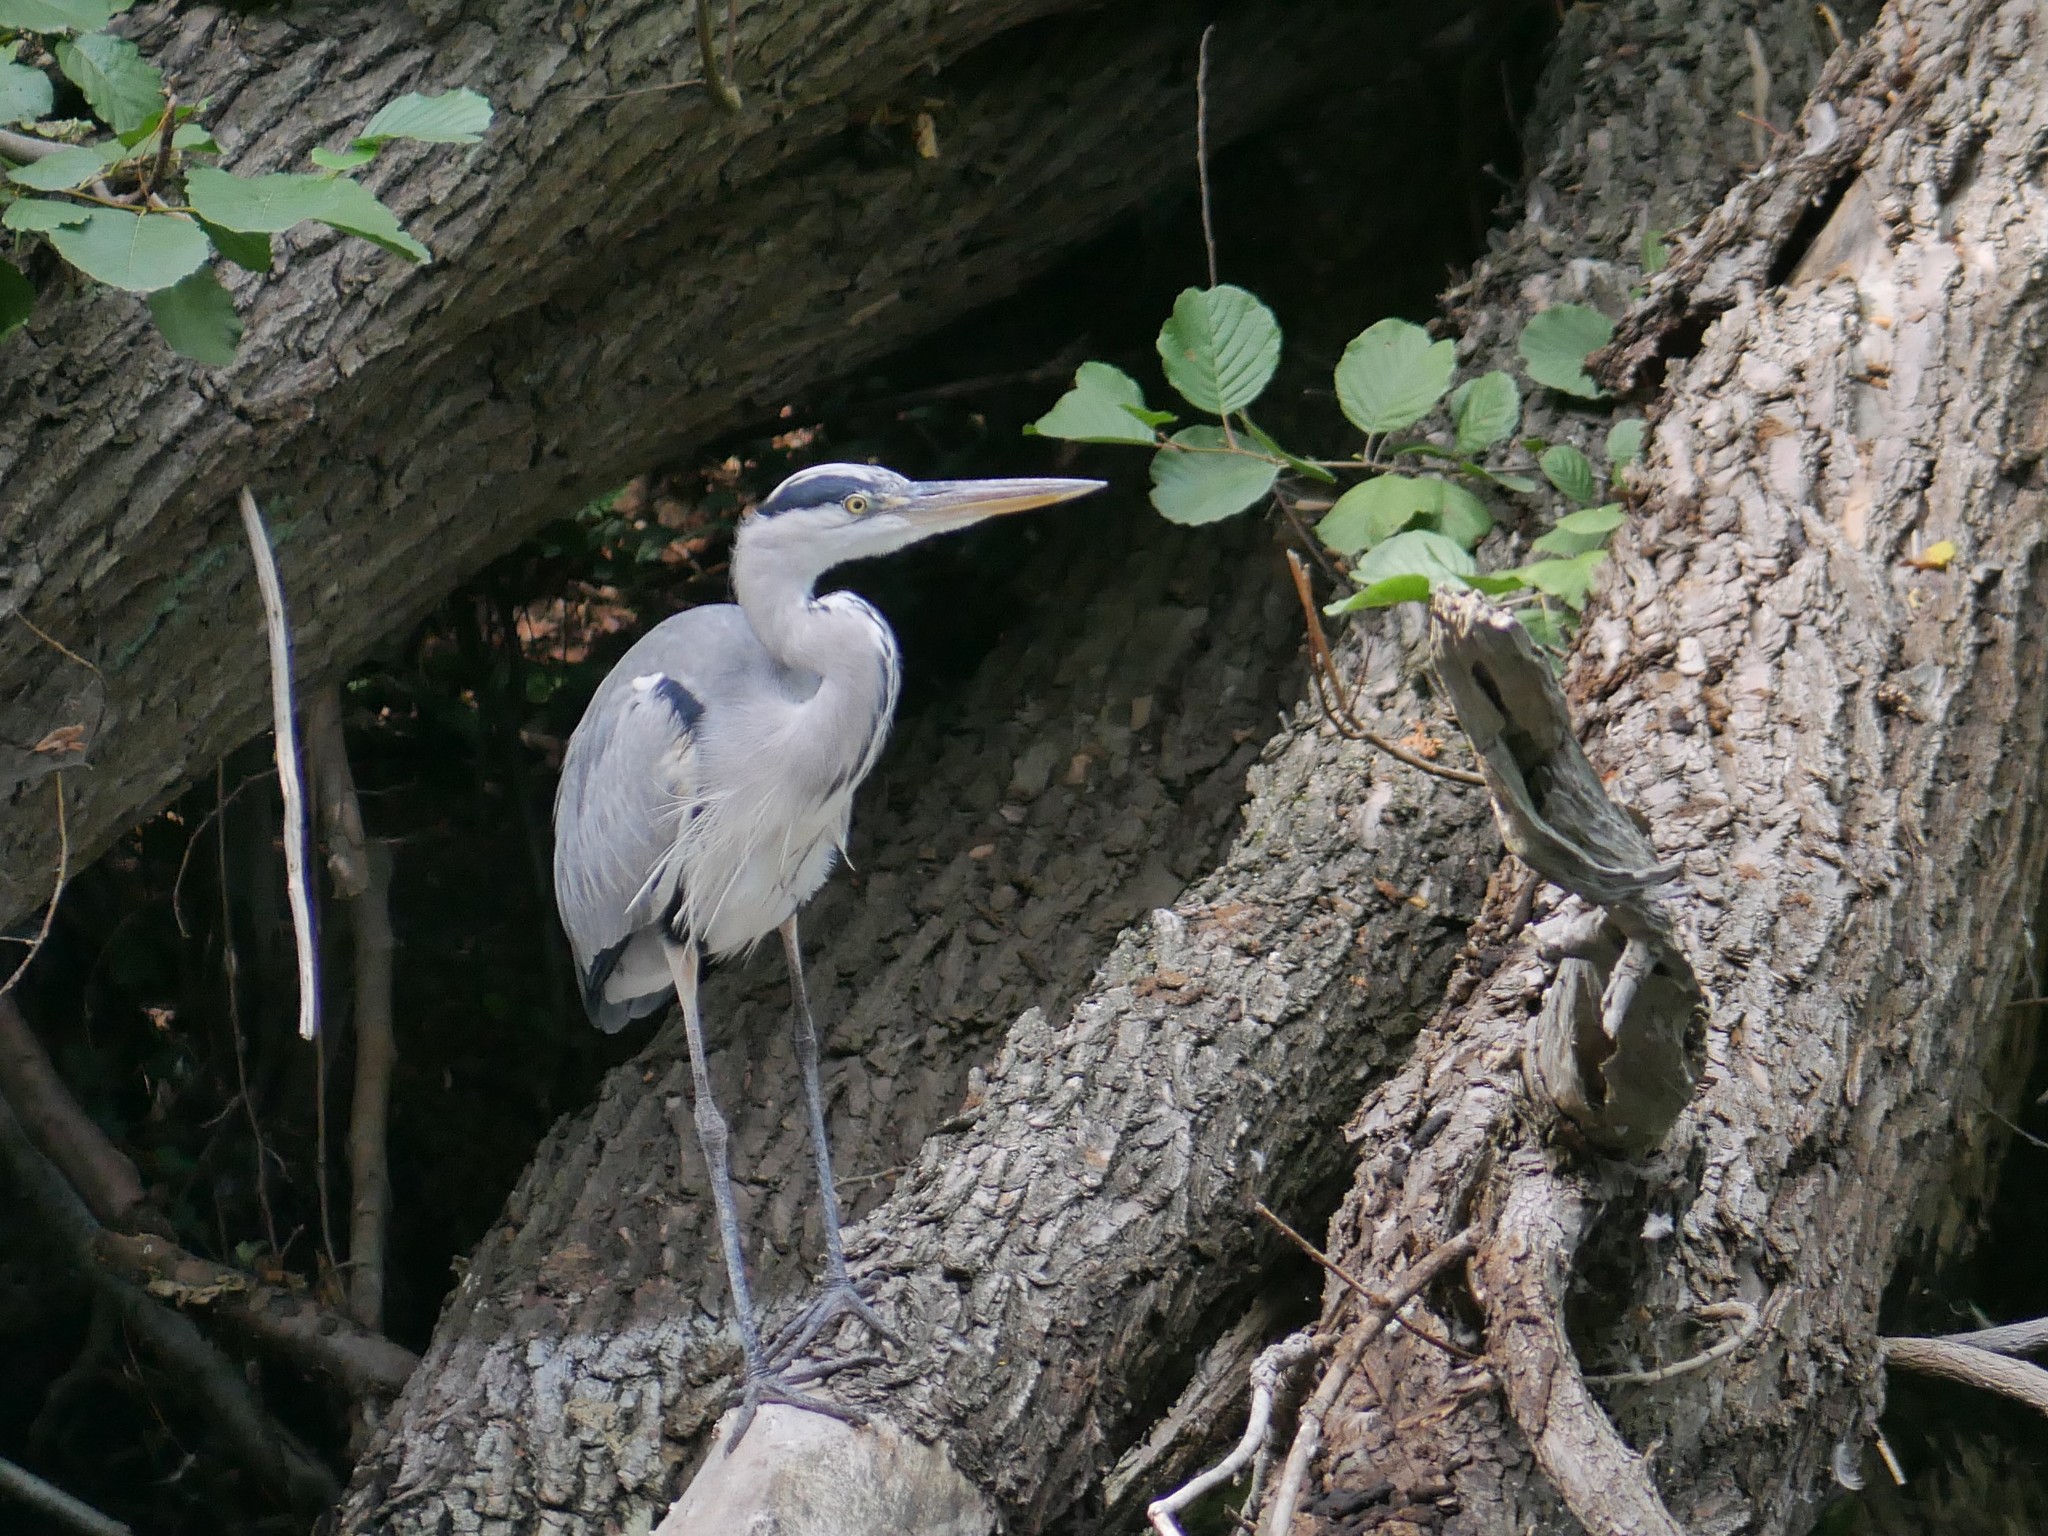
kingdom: Animalia
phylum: Chordata
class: Aves
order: Pelecaniformes
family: Ardeidae
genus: Ardea
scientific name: Ardea cinerea
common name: Grey heron
